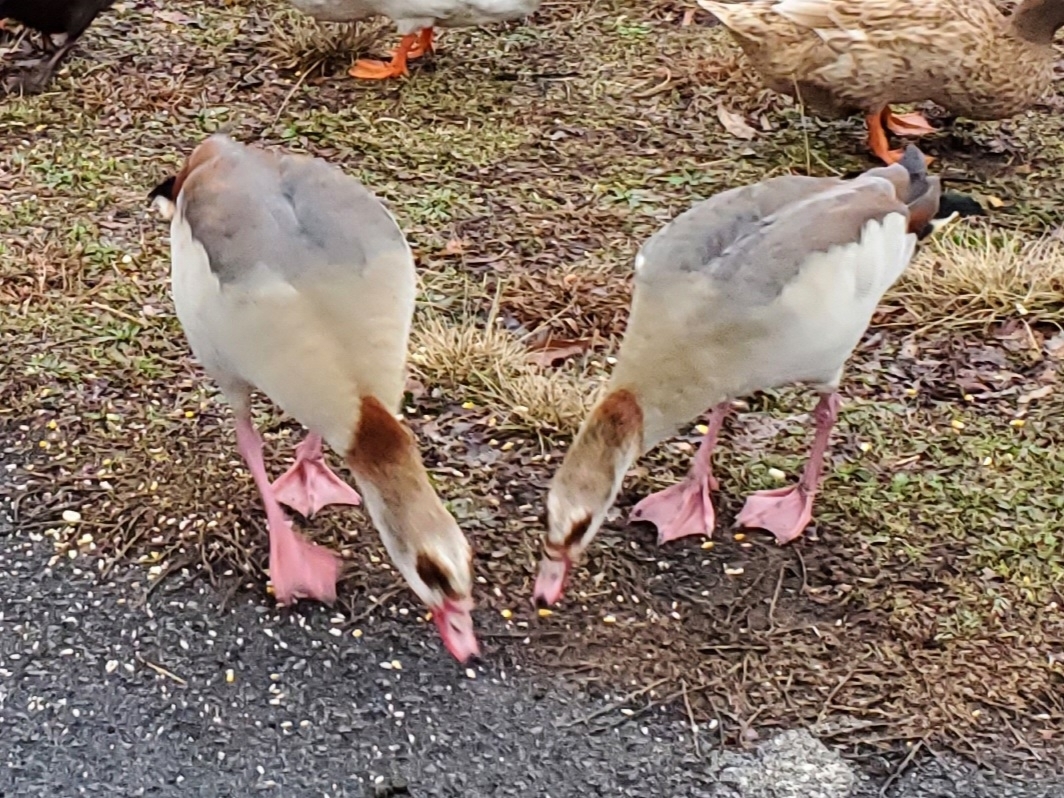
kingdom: Animalia
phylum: Chordata
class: Aves
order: Anseriformes
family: Anatidae
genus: Alopochen
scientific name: Alopochen aegyptiaca
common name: Egyptian goose
